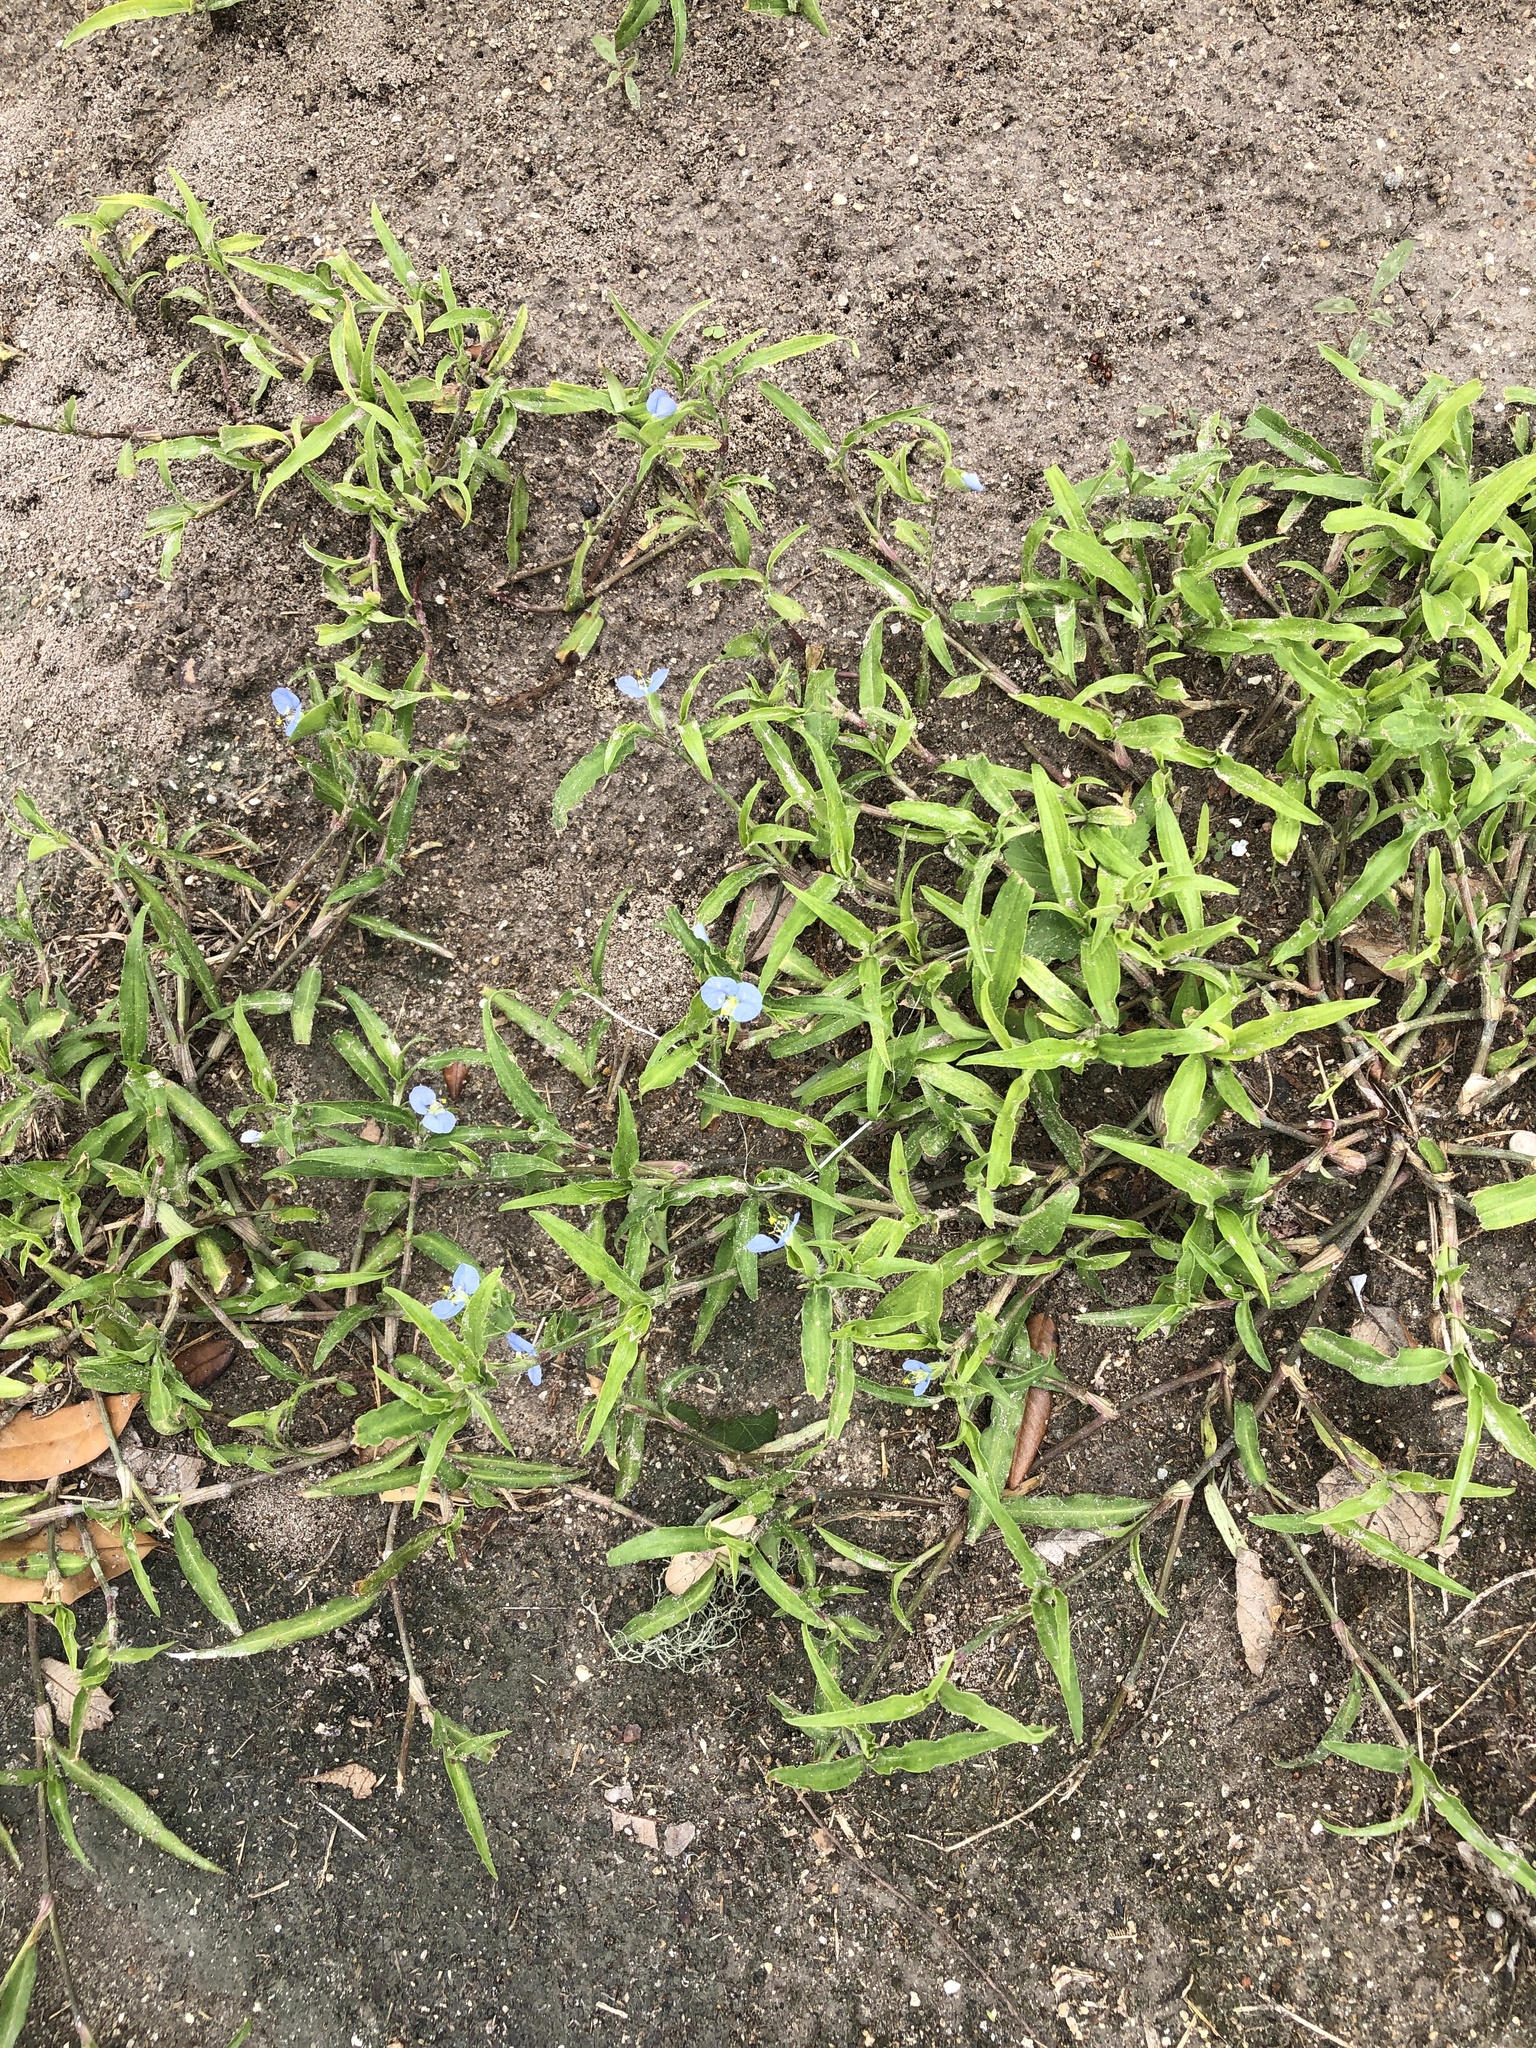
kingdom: Plantae
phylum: Tracheophyta
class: Liliopsida
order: Commelinales
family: Commelinaceae
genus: Commelina
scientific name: Commelina erecta
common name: Blousel blommetjie
